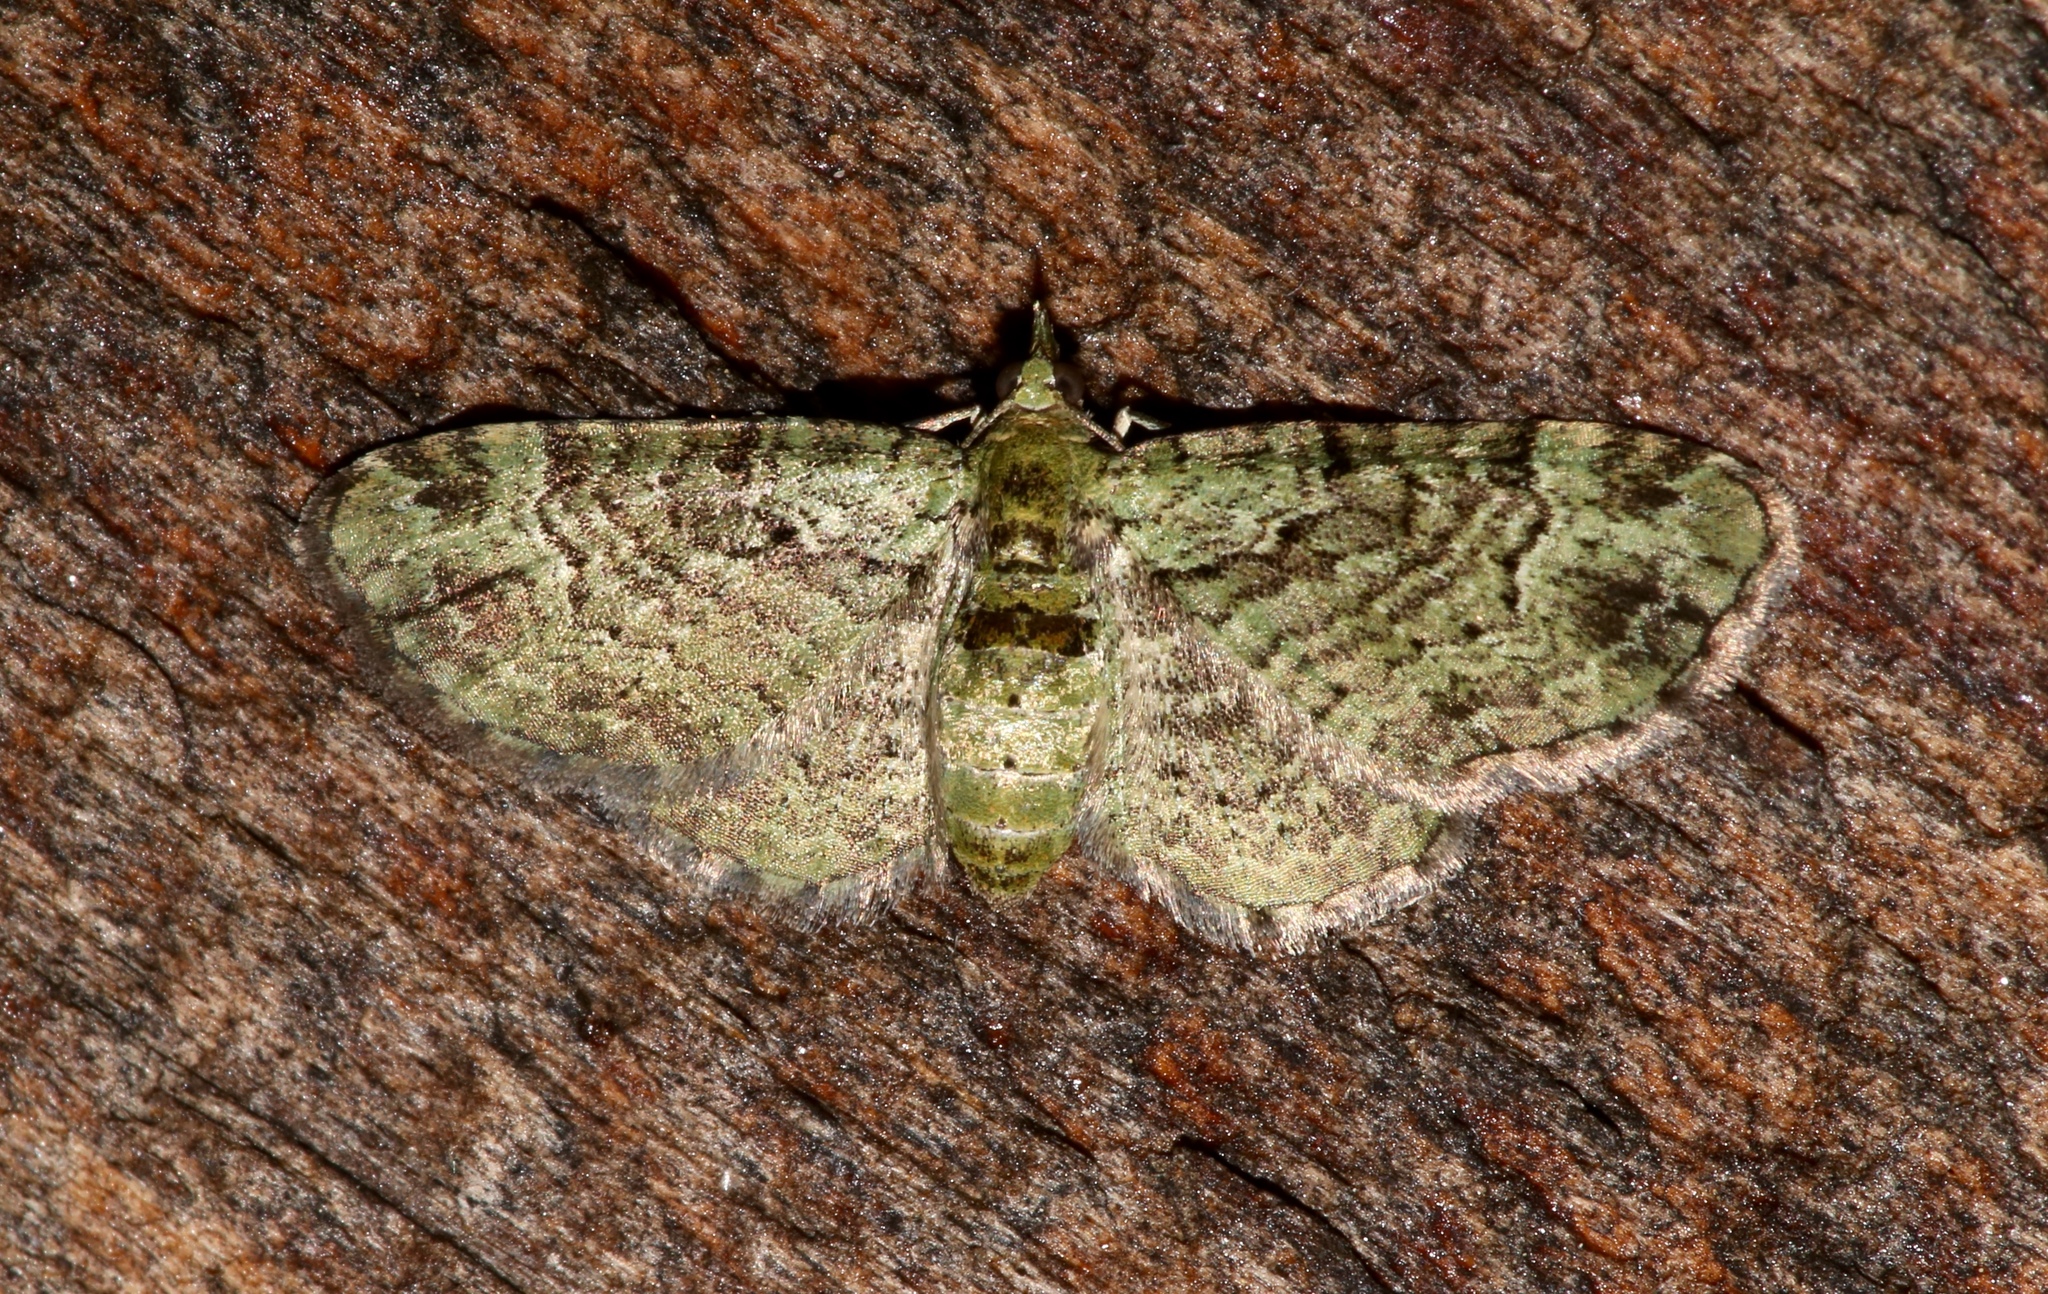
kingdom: Animalia
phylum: Arthropoda
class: Insecta
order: Lepidoptera
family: Geometridae
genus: Pasiphila
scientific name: Pasiphila rectangulata
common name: Green pug
